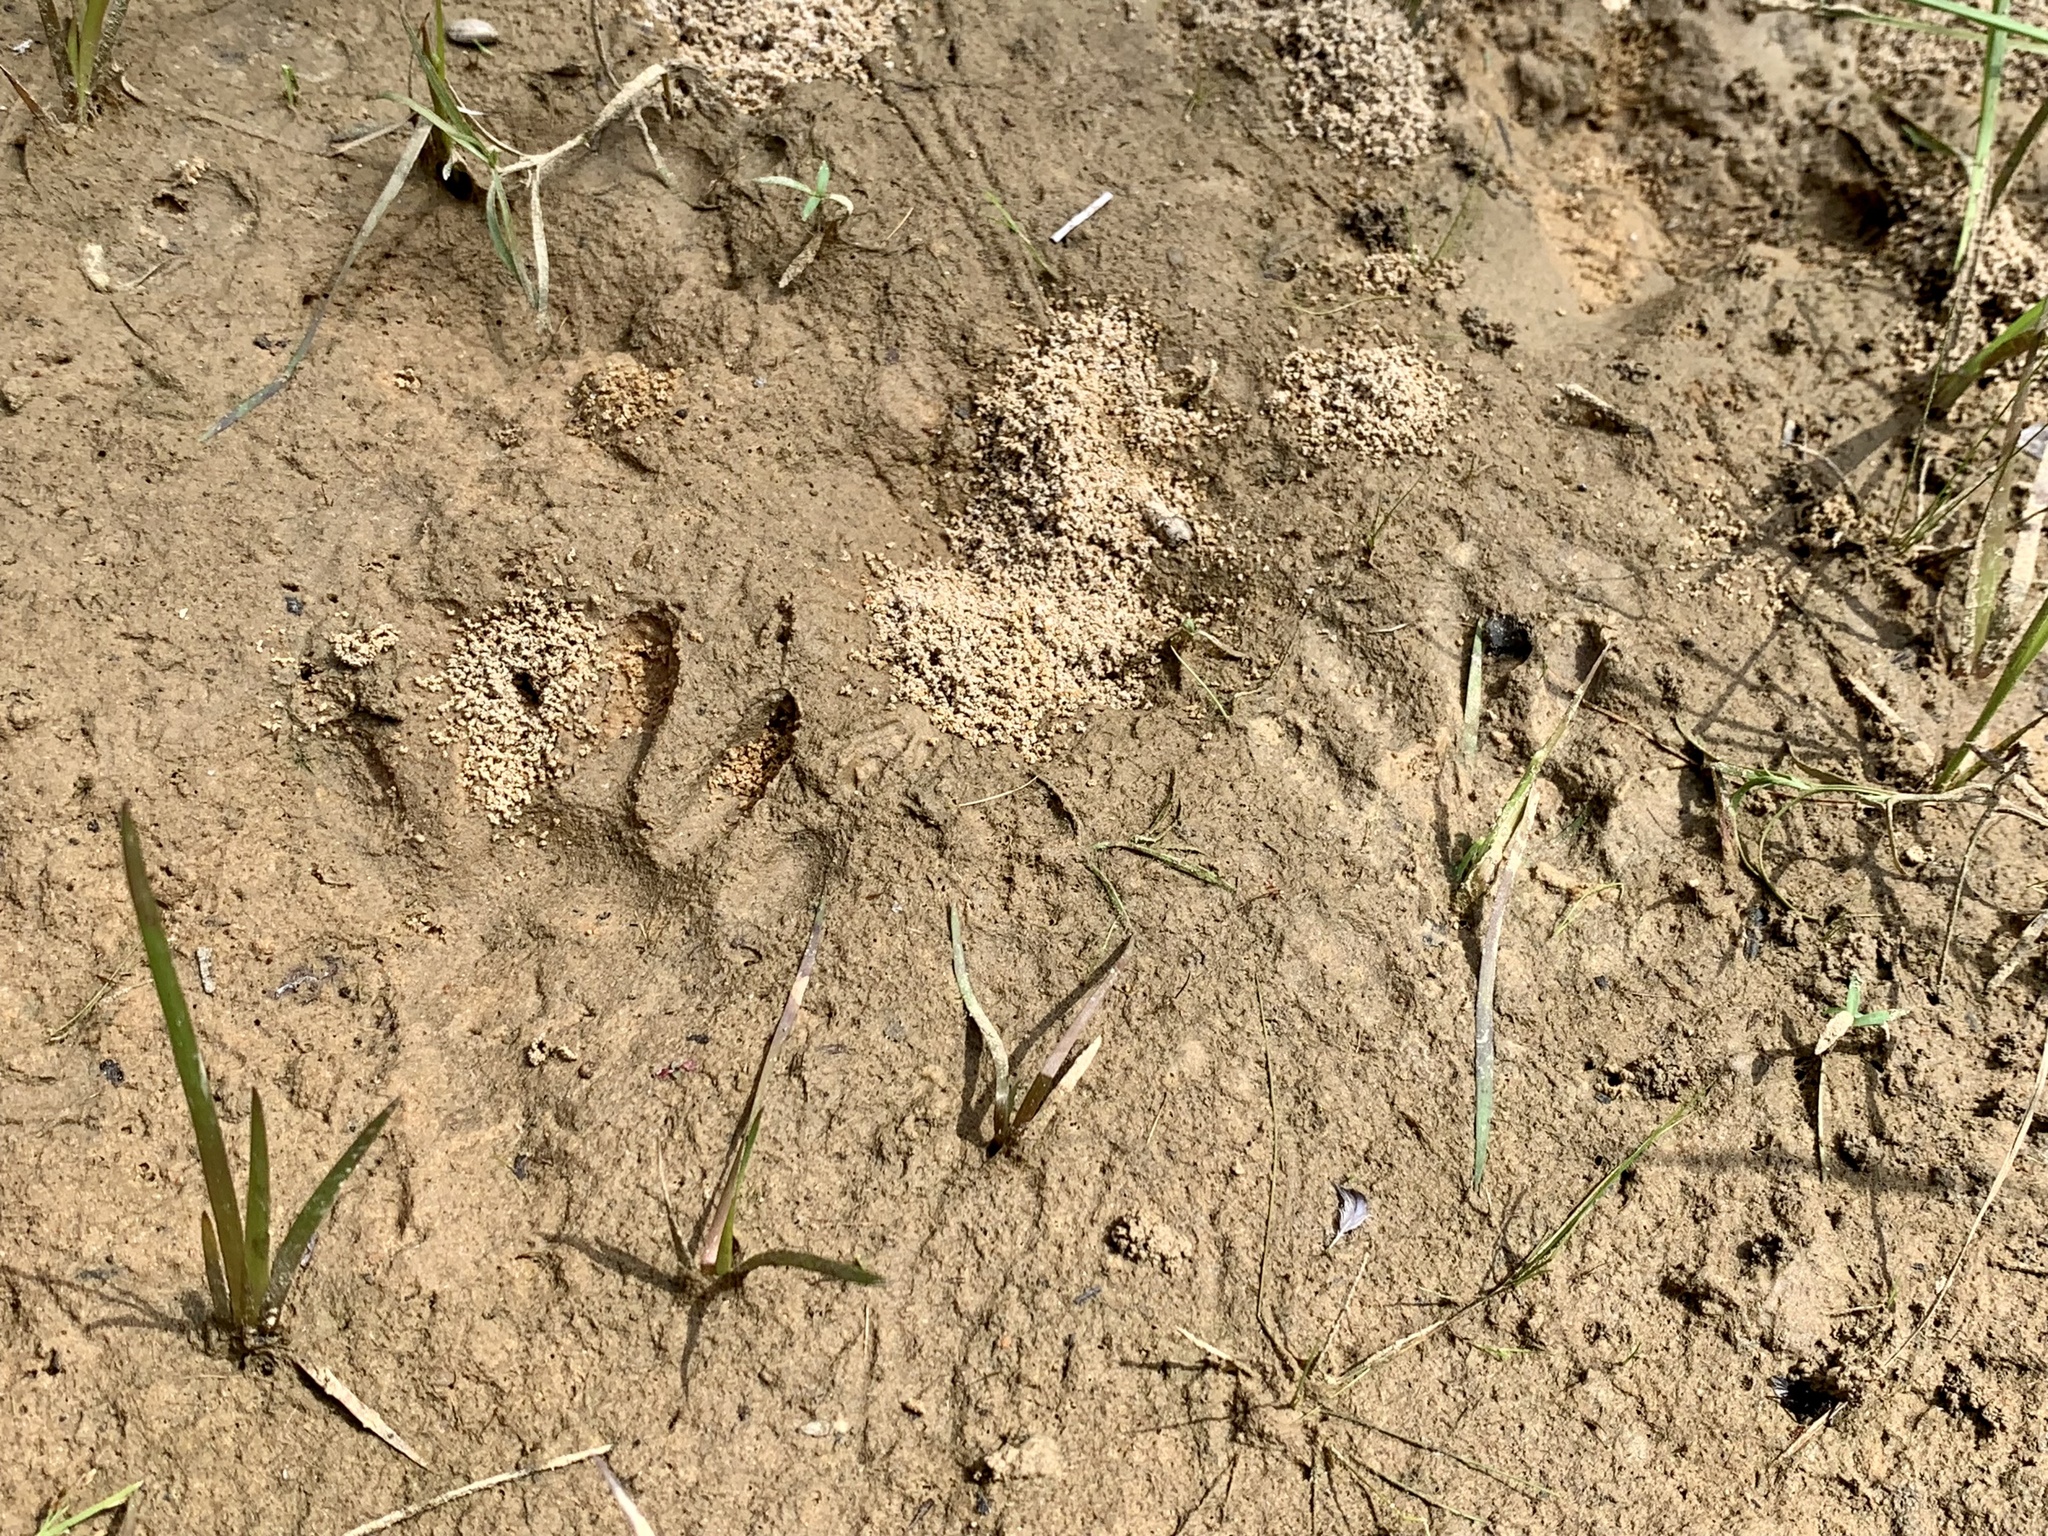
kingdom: Animalia
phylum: Chordata
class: Mammalia
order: Carnivora
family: Procyonidae
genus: Procyon
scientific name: Procyon lotor
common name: Raccoon
